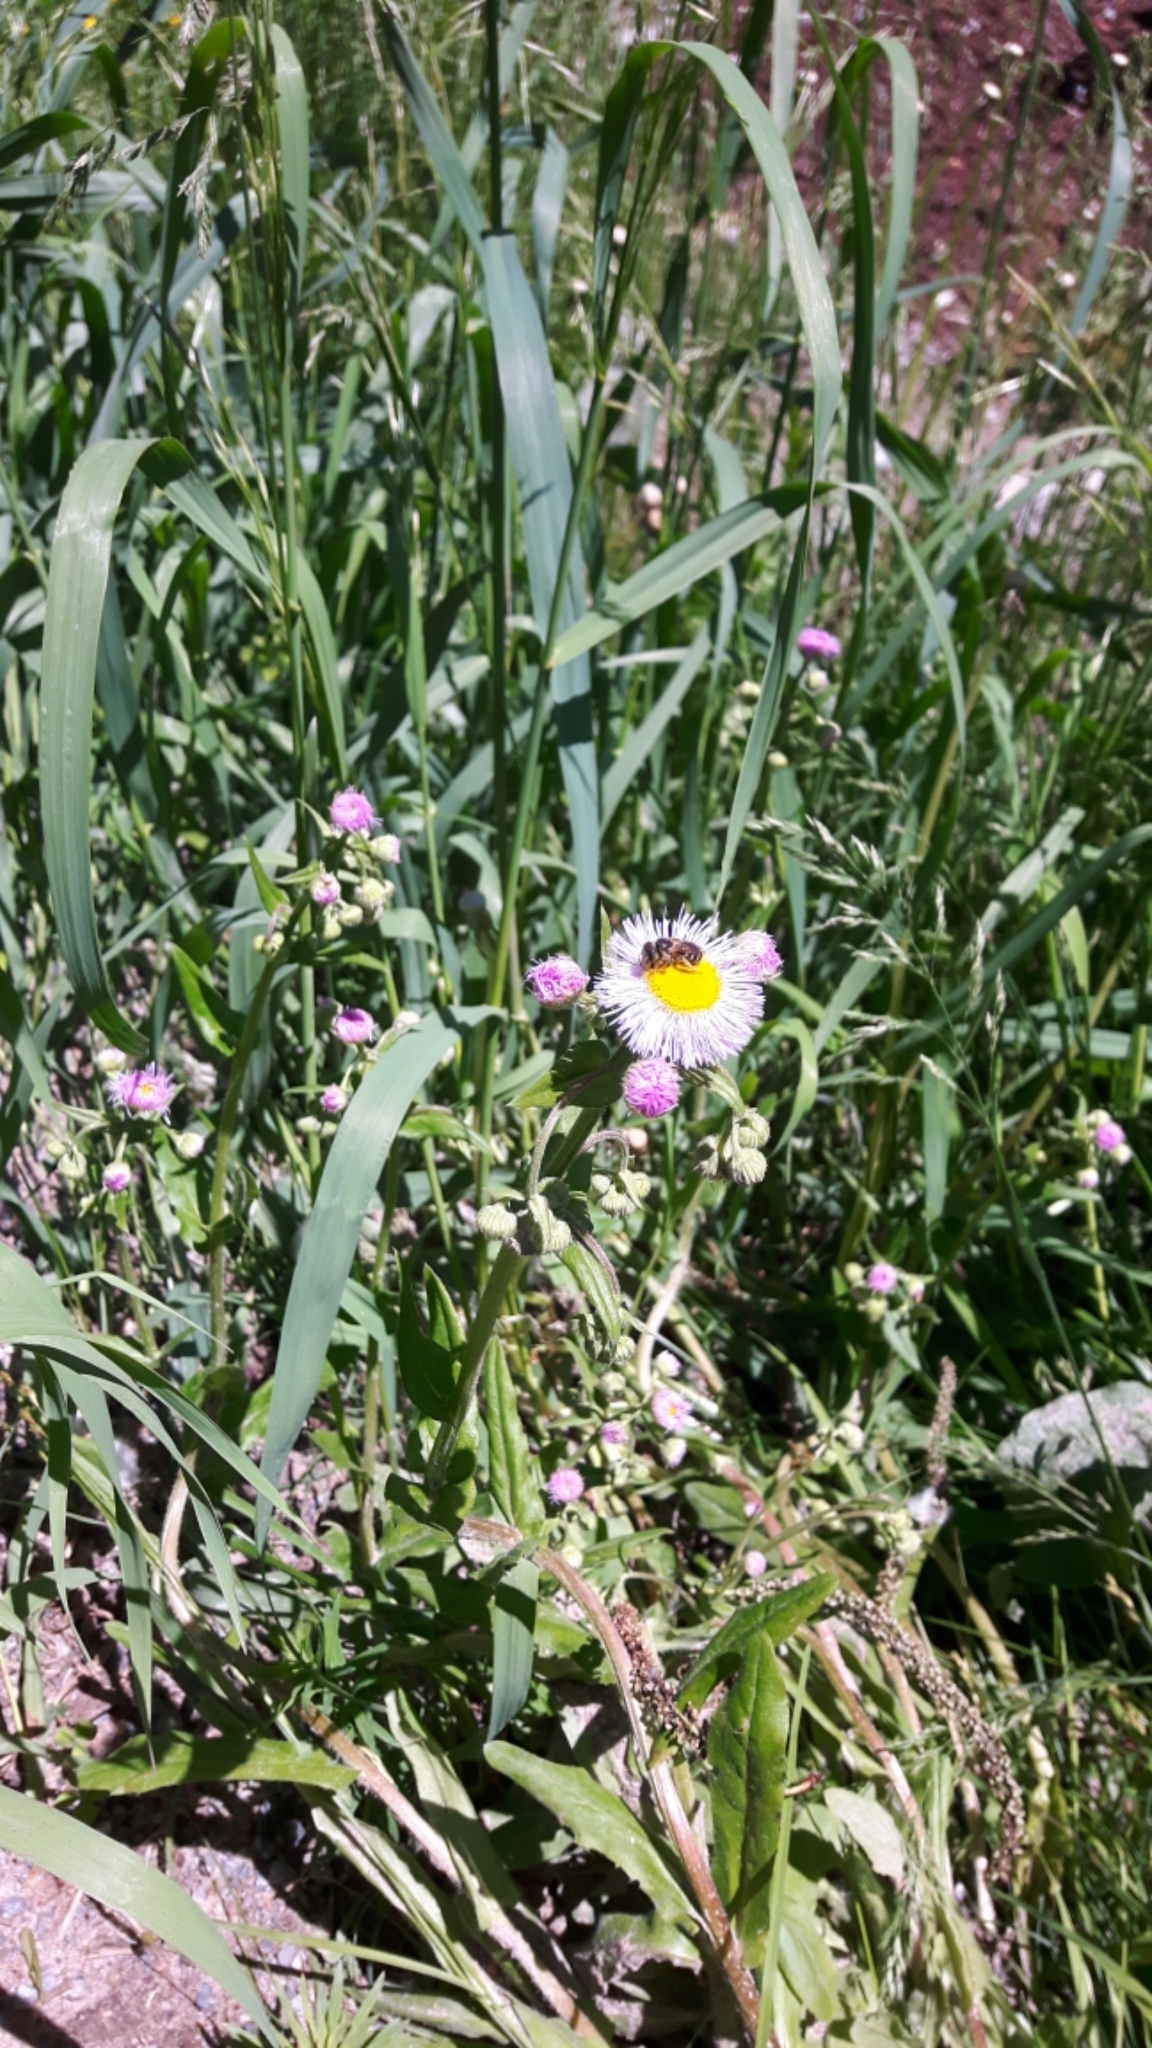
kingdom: Animalia
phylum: Arthropoda
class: Insecta
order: Hymenoptera
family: Halictidae
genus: Halictus
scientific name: Halictus ligatus
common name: Ligated furrow bee
